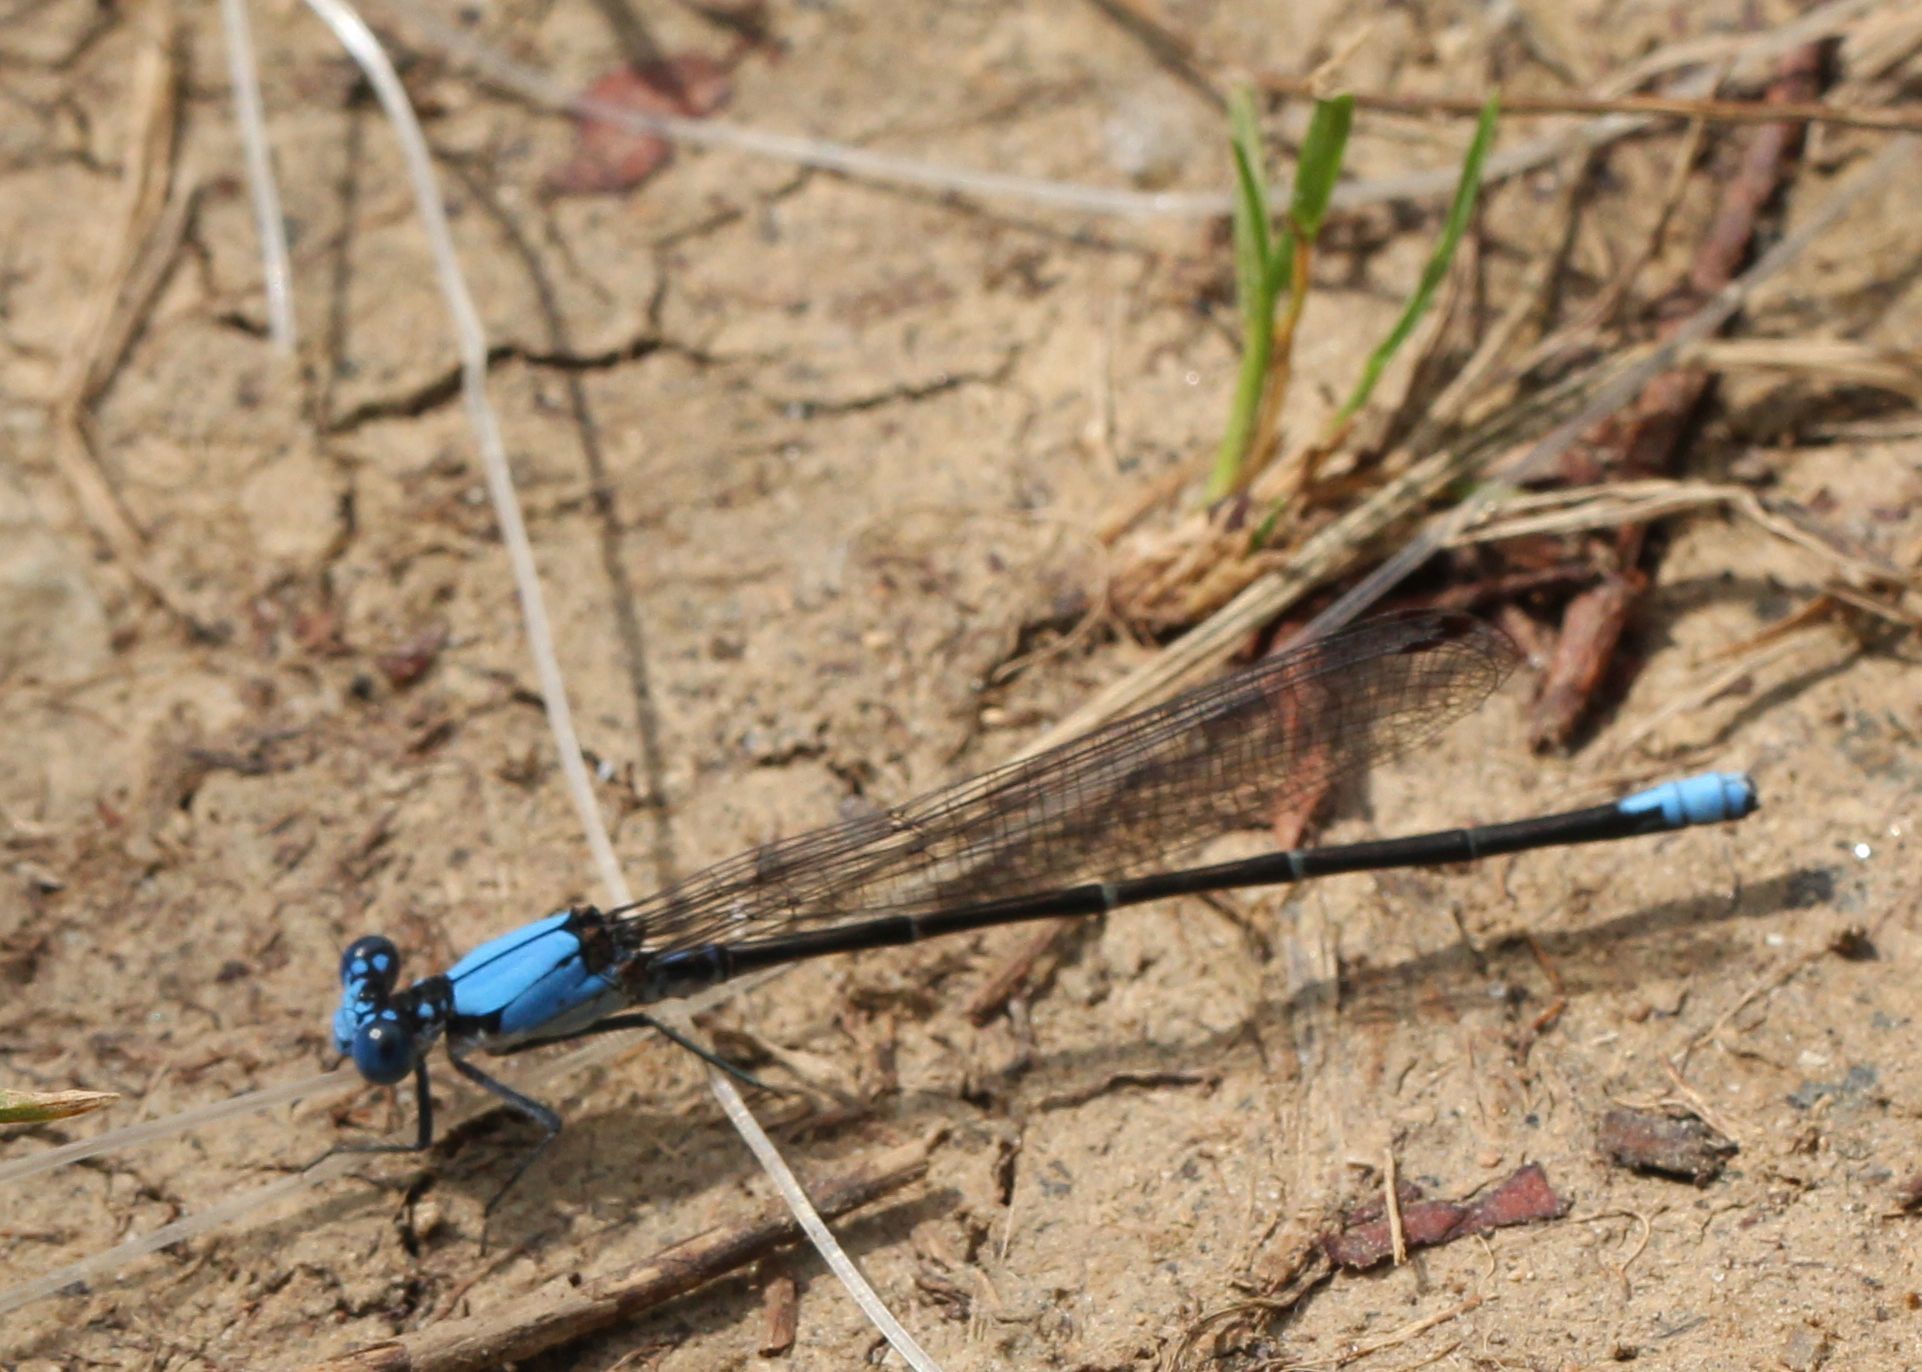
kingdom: Animalia
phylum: Arthropoda
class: Insecta
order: Odonata
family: Coenagrionidae
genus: Argia
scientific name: Argia apicalis
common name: Blue-fronted dancer
